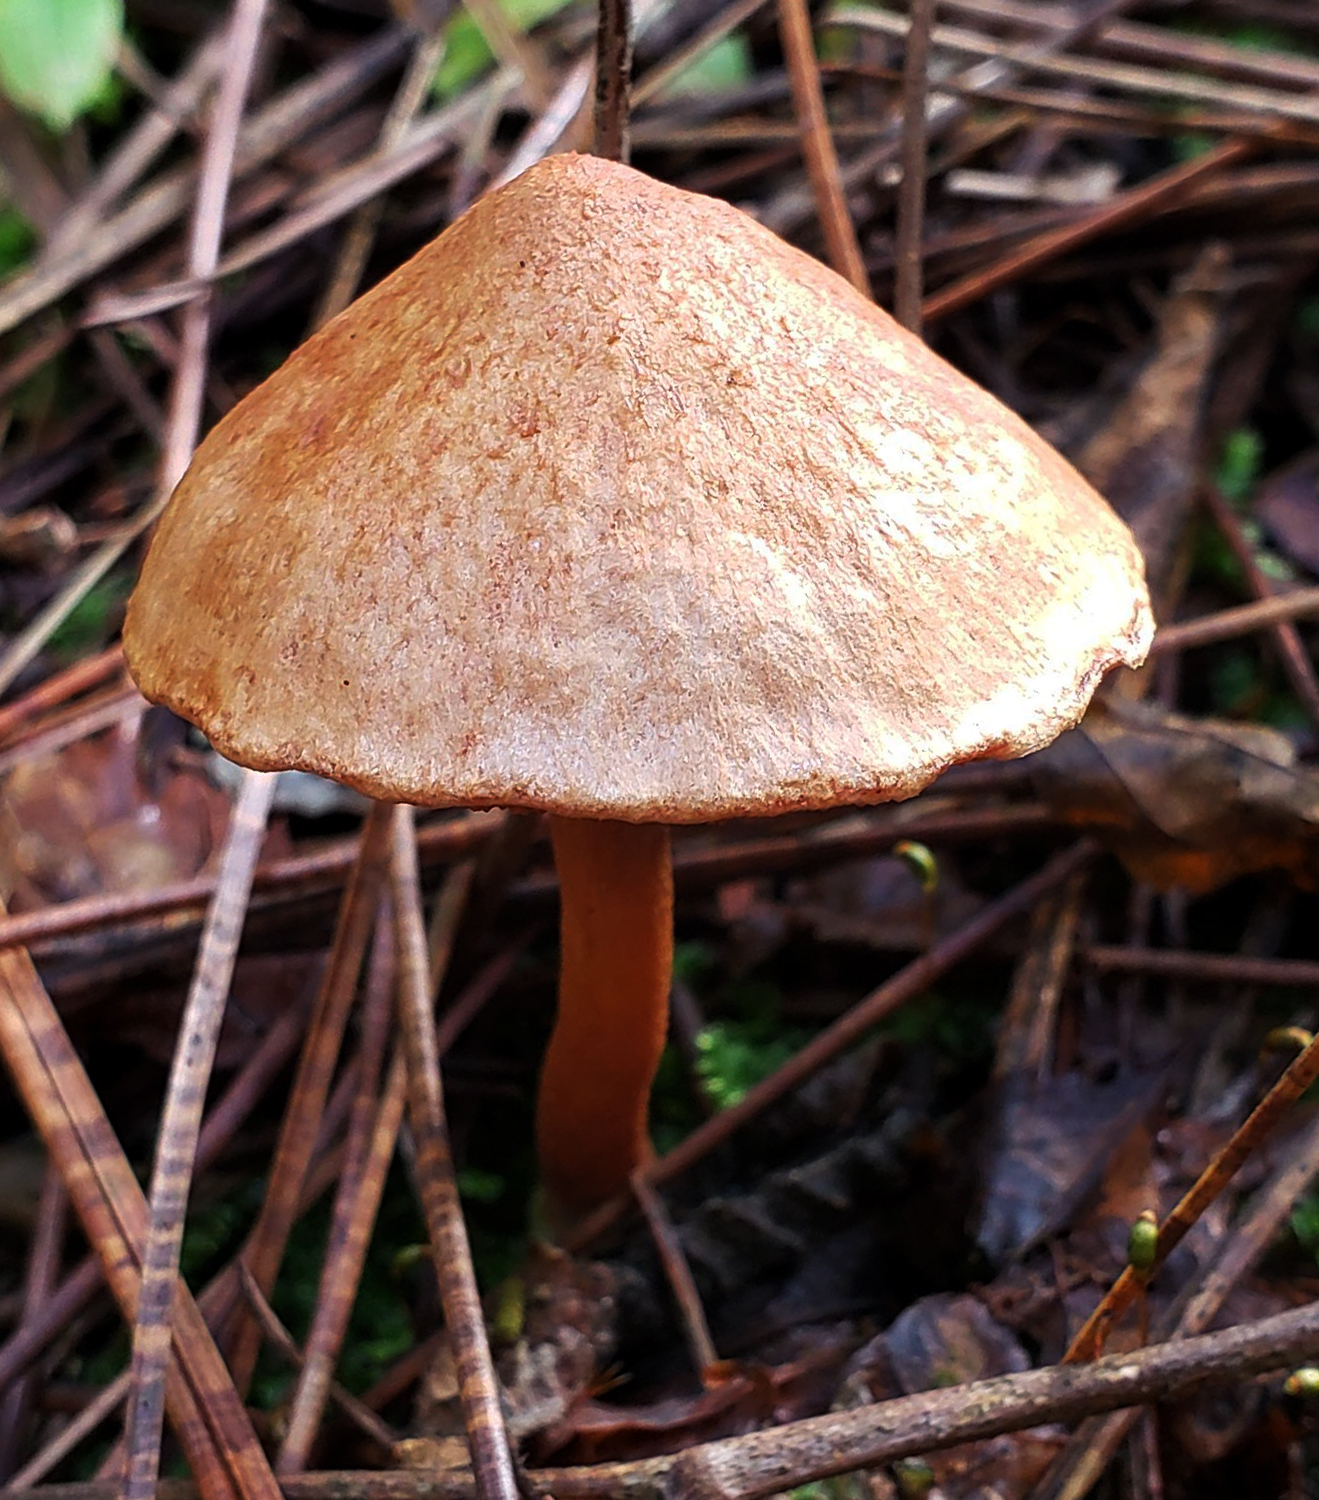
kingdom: Fungi
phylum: Basidiomycota
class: Agaricomycetes
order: Boletales
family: Boletaceae
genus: Chalciporus
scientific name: Chalciporus piperatus
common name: Peppery bolete
